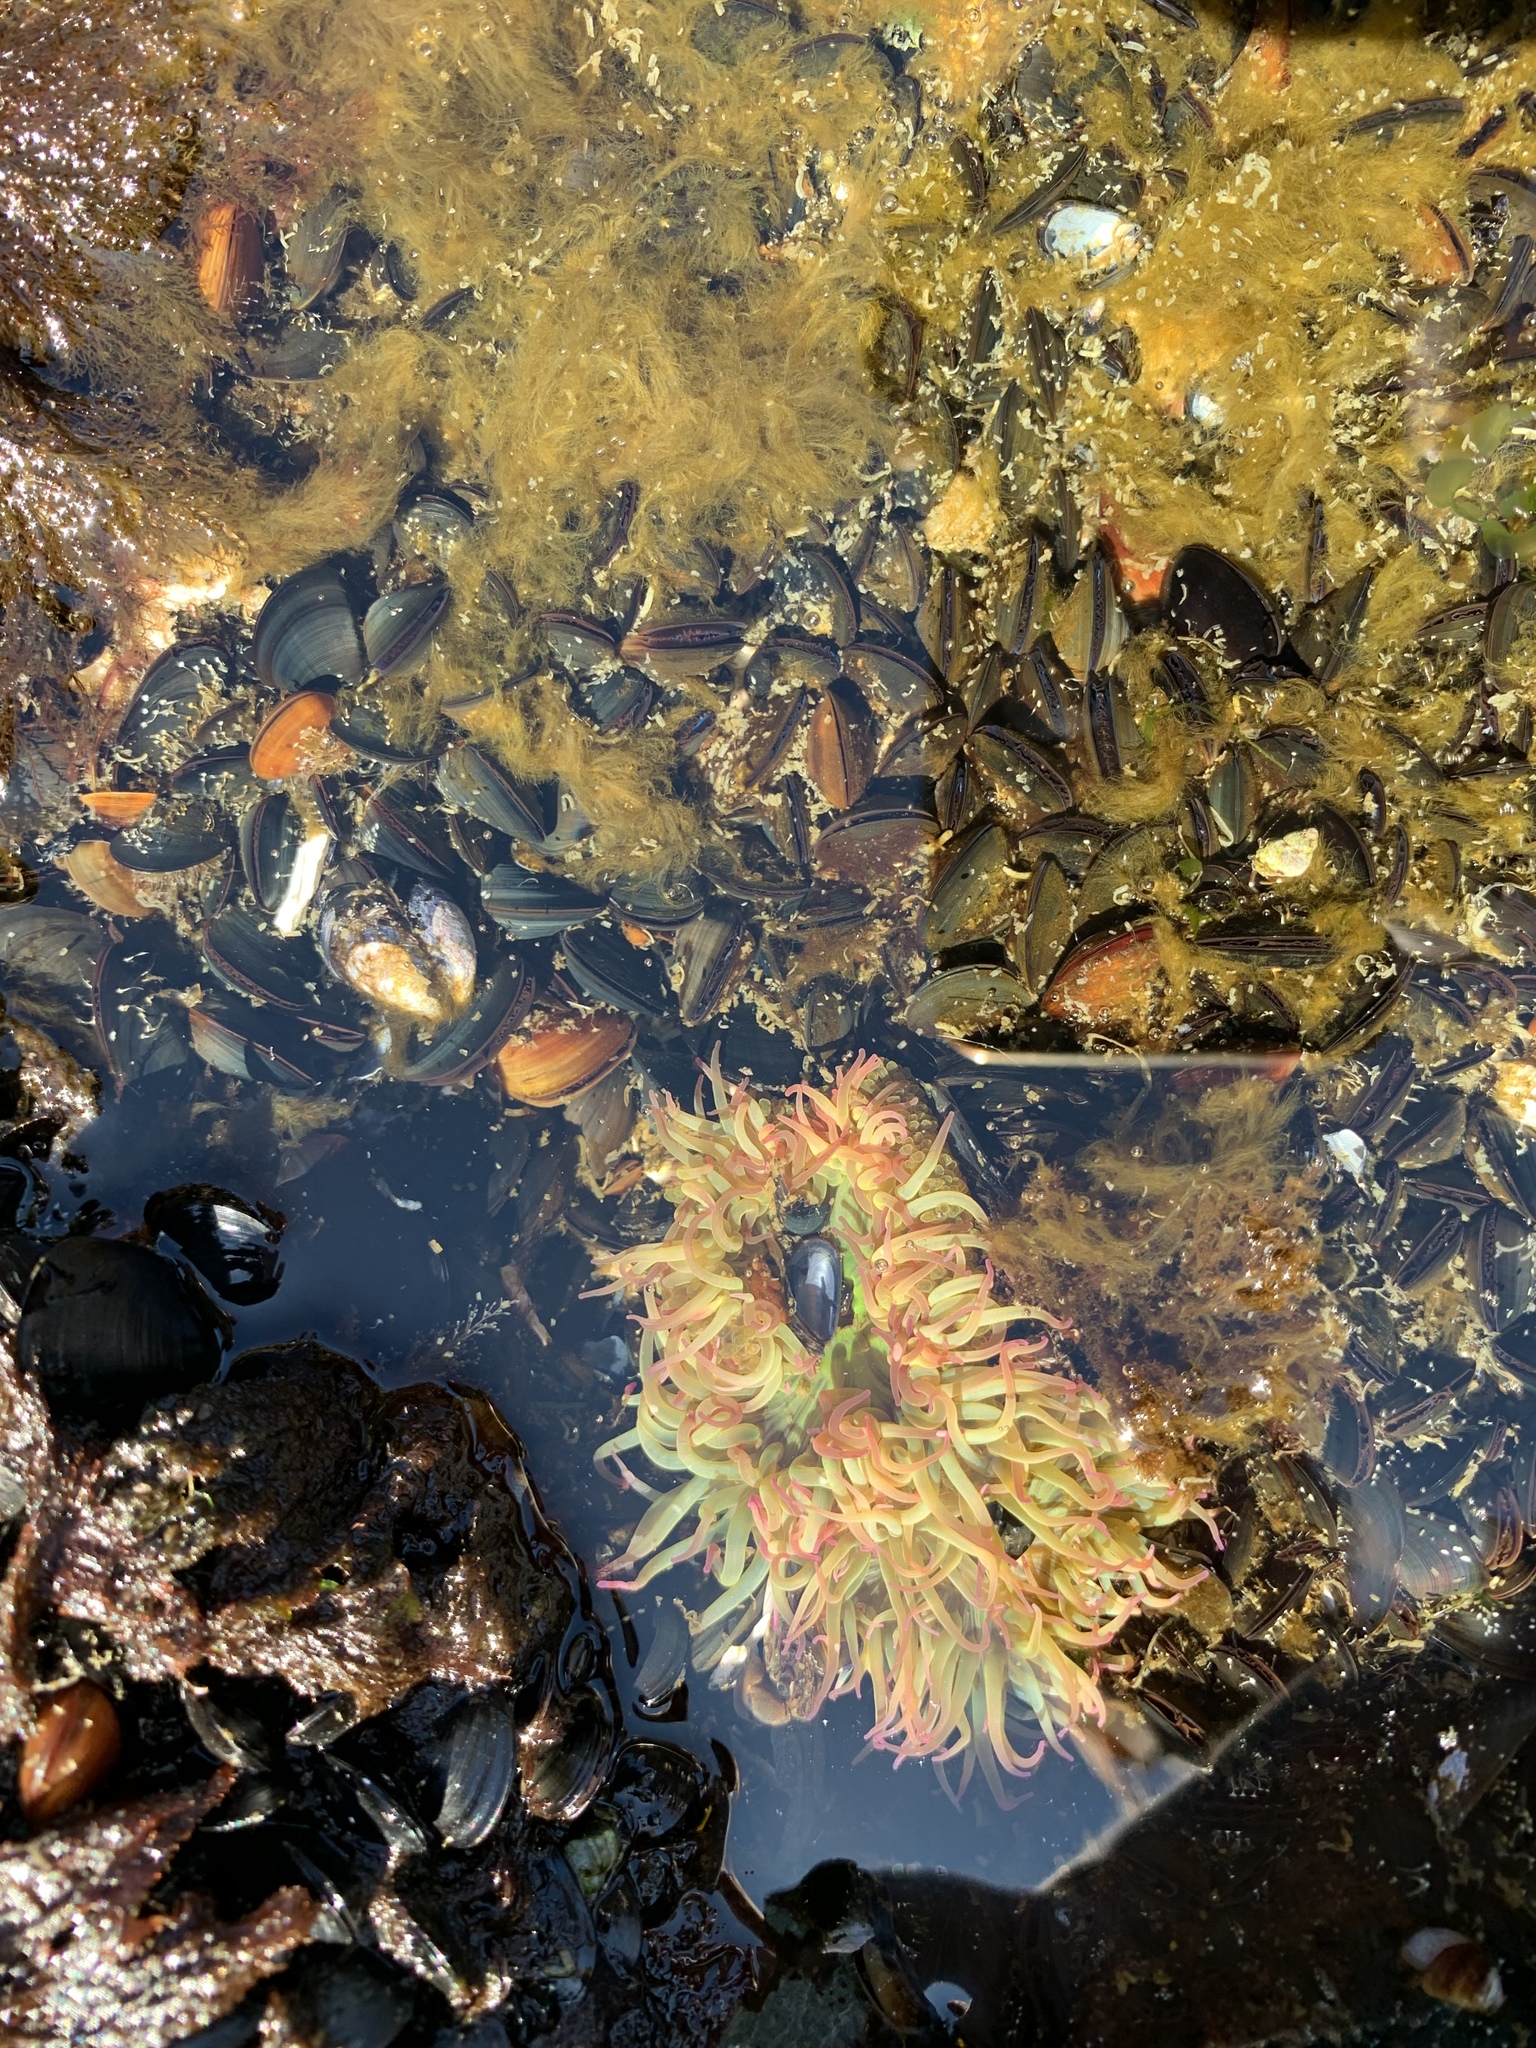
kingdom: Animalia
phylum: Cnidaria
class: Anthozoa
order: Actiniaria
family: Actiniidae
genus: Anthopleura
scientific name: Anthopleura elegantissima
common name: Clonal anemone
